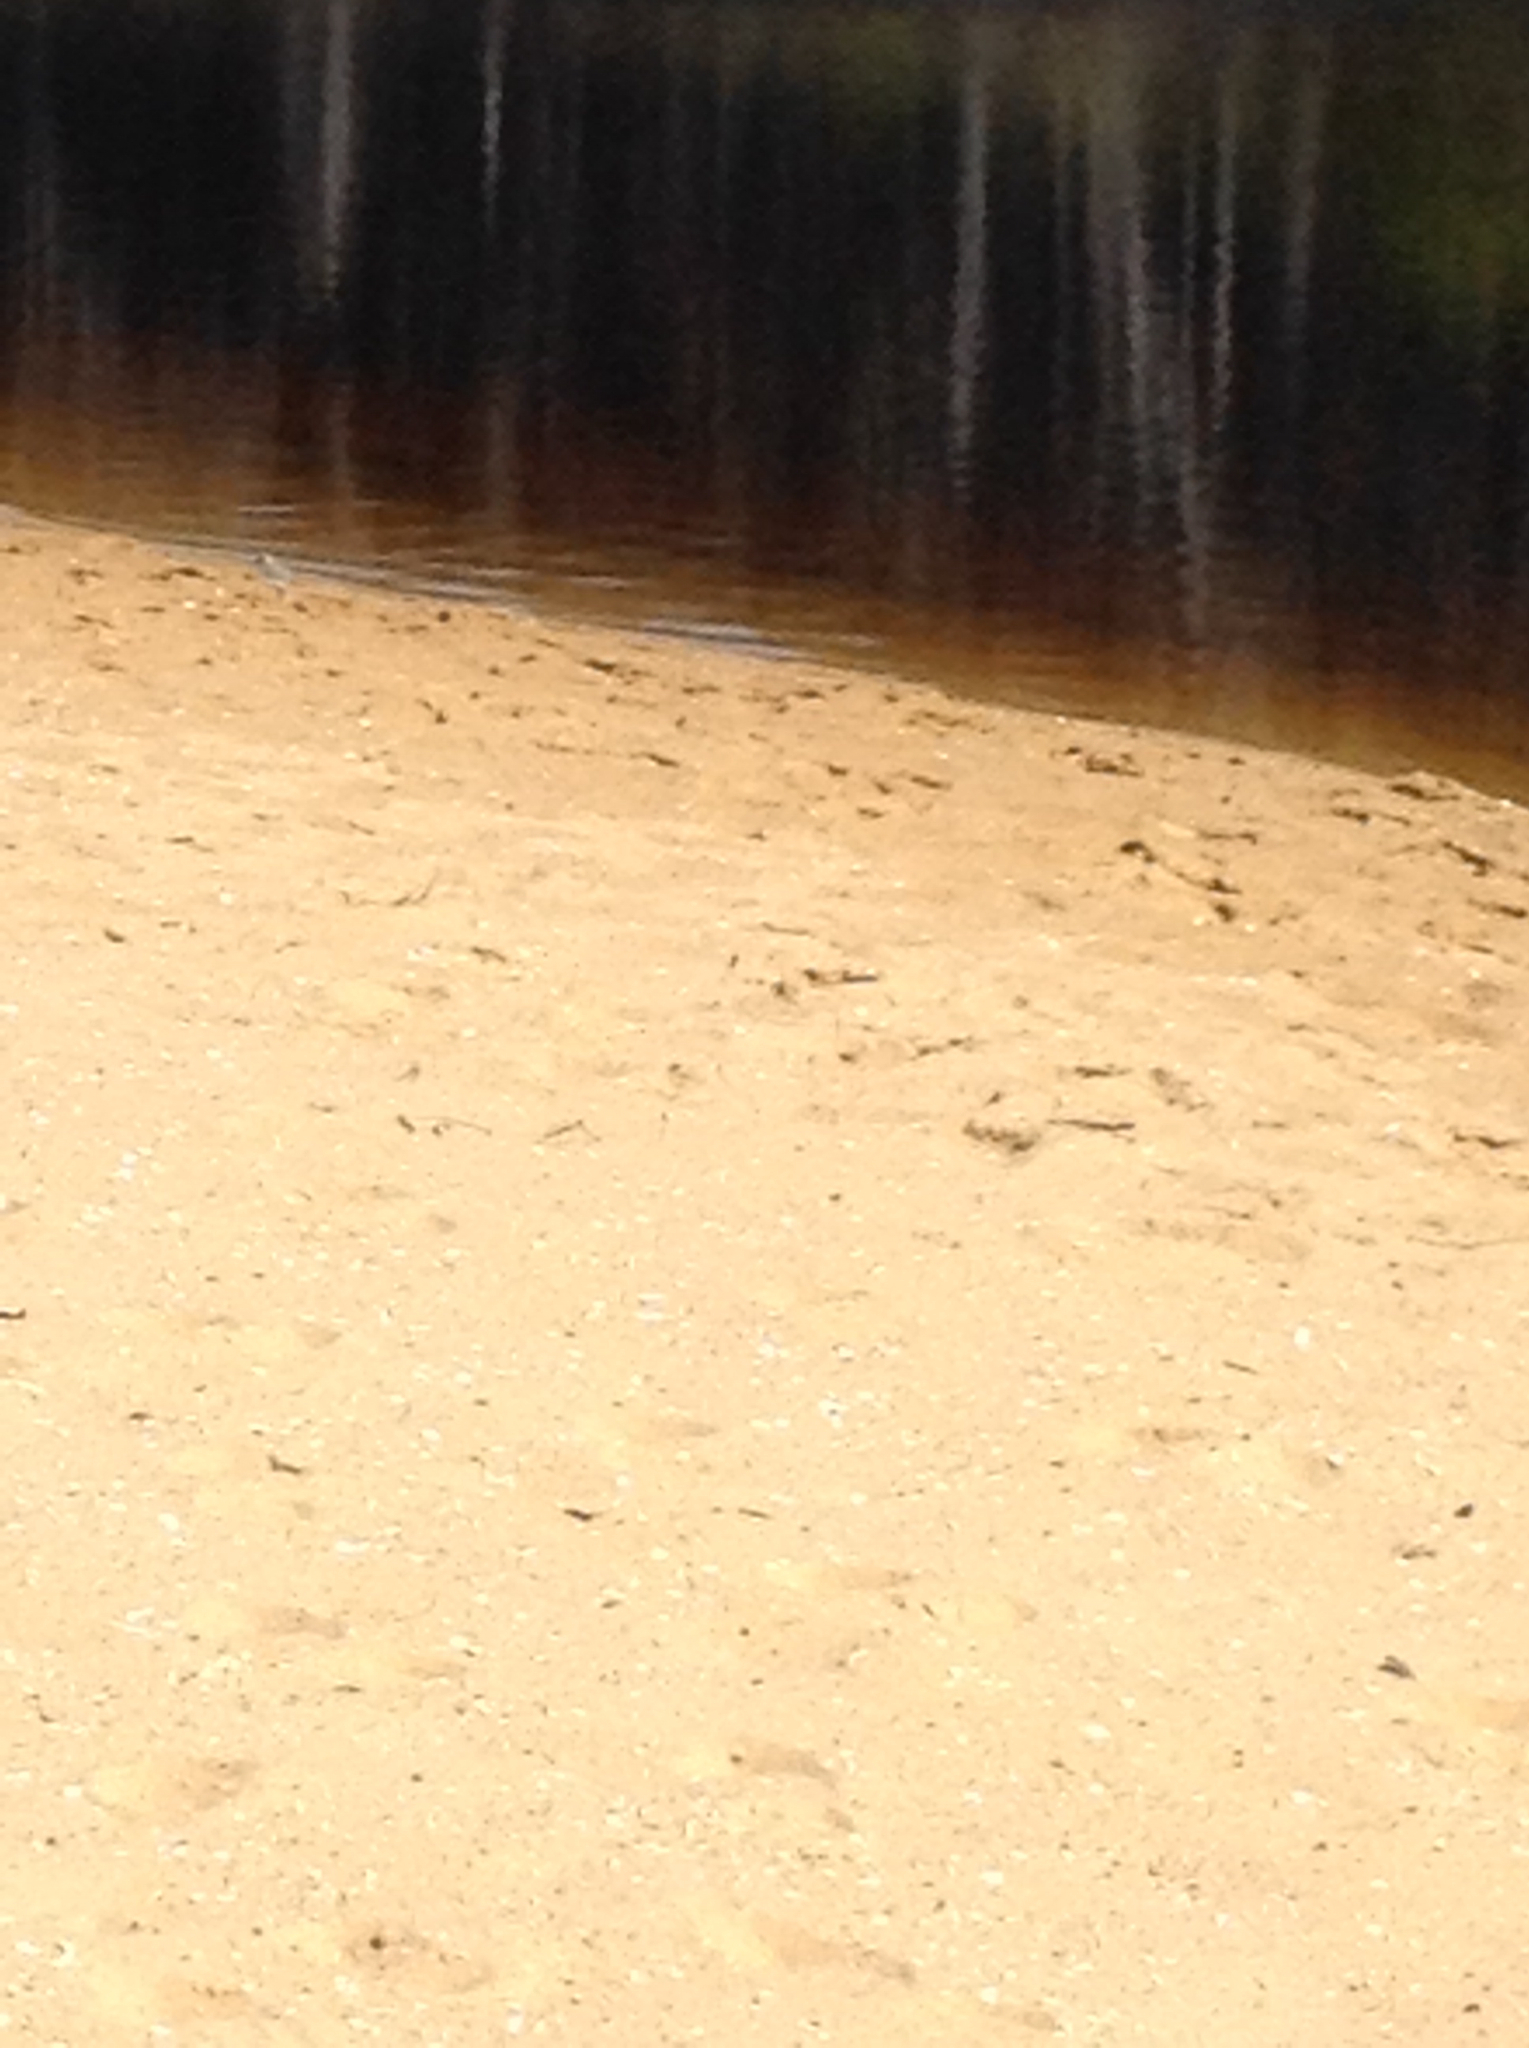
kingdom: Animalia
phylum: Chordata
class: Aves
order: Charadriiformes
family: Charadriidae
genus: Anarhynchus
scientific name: Anarhynchus
